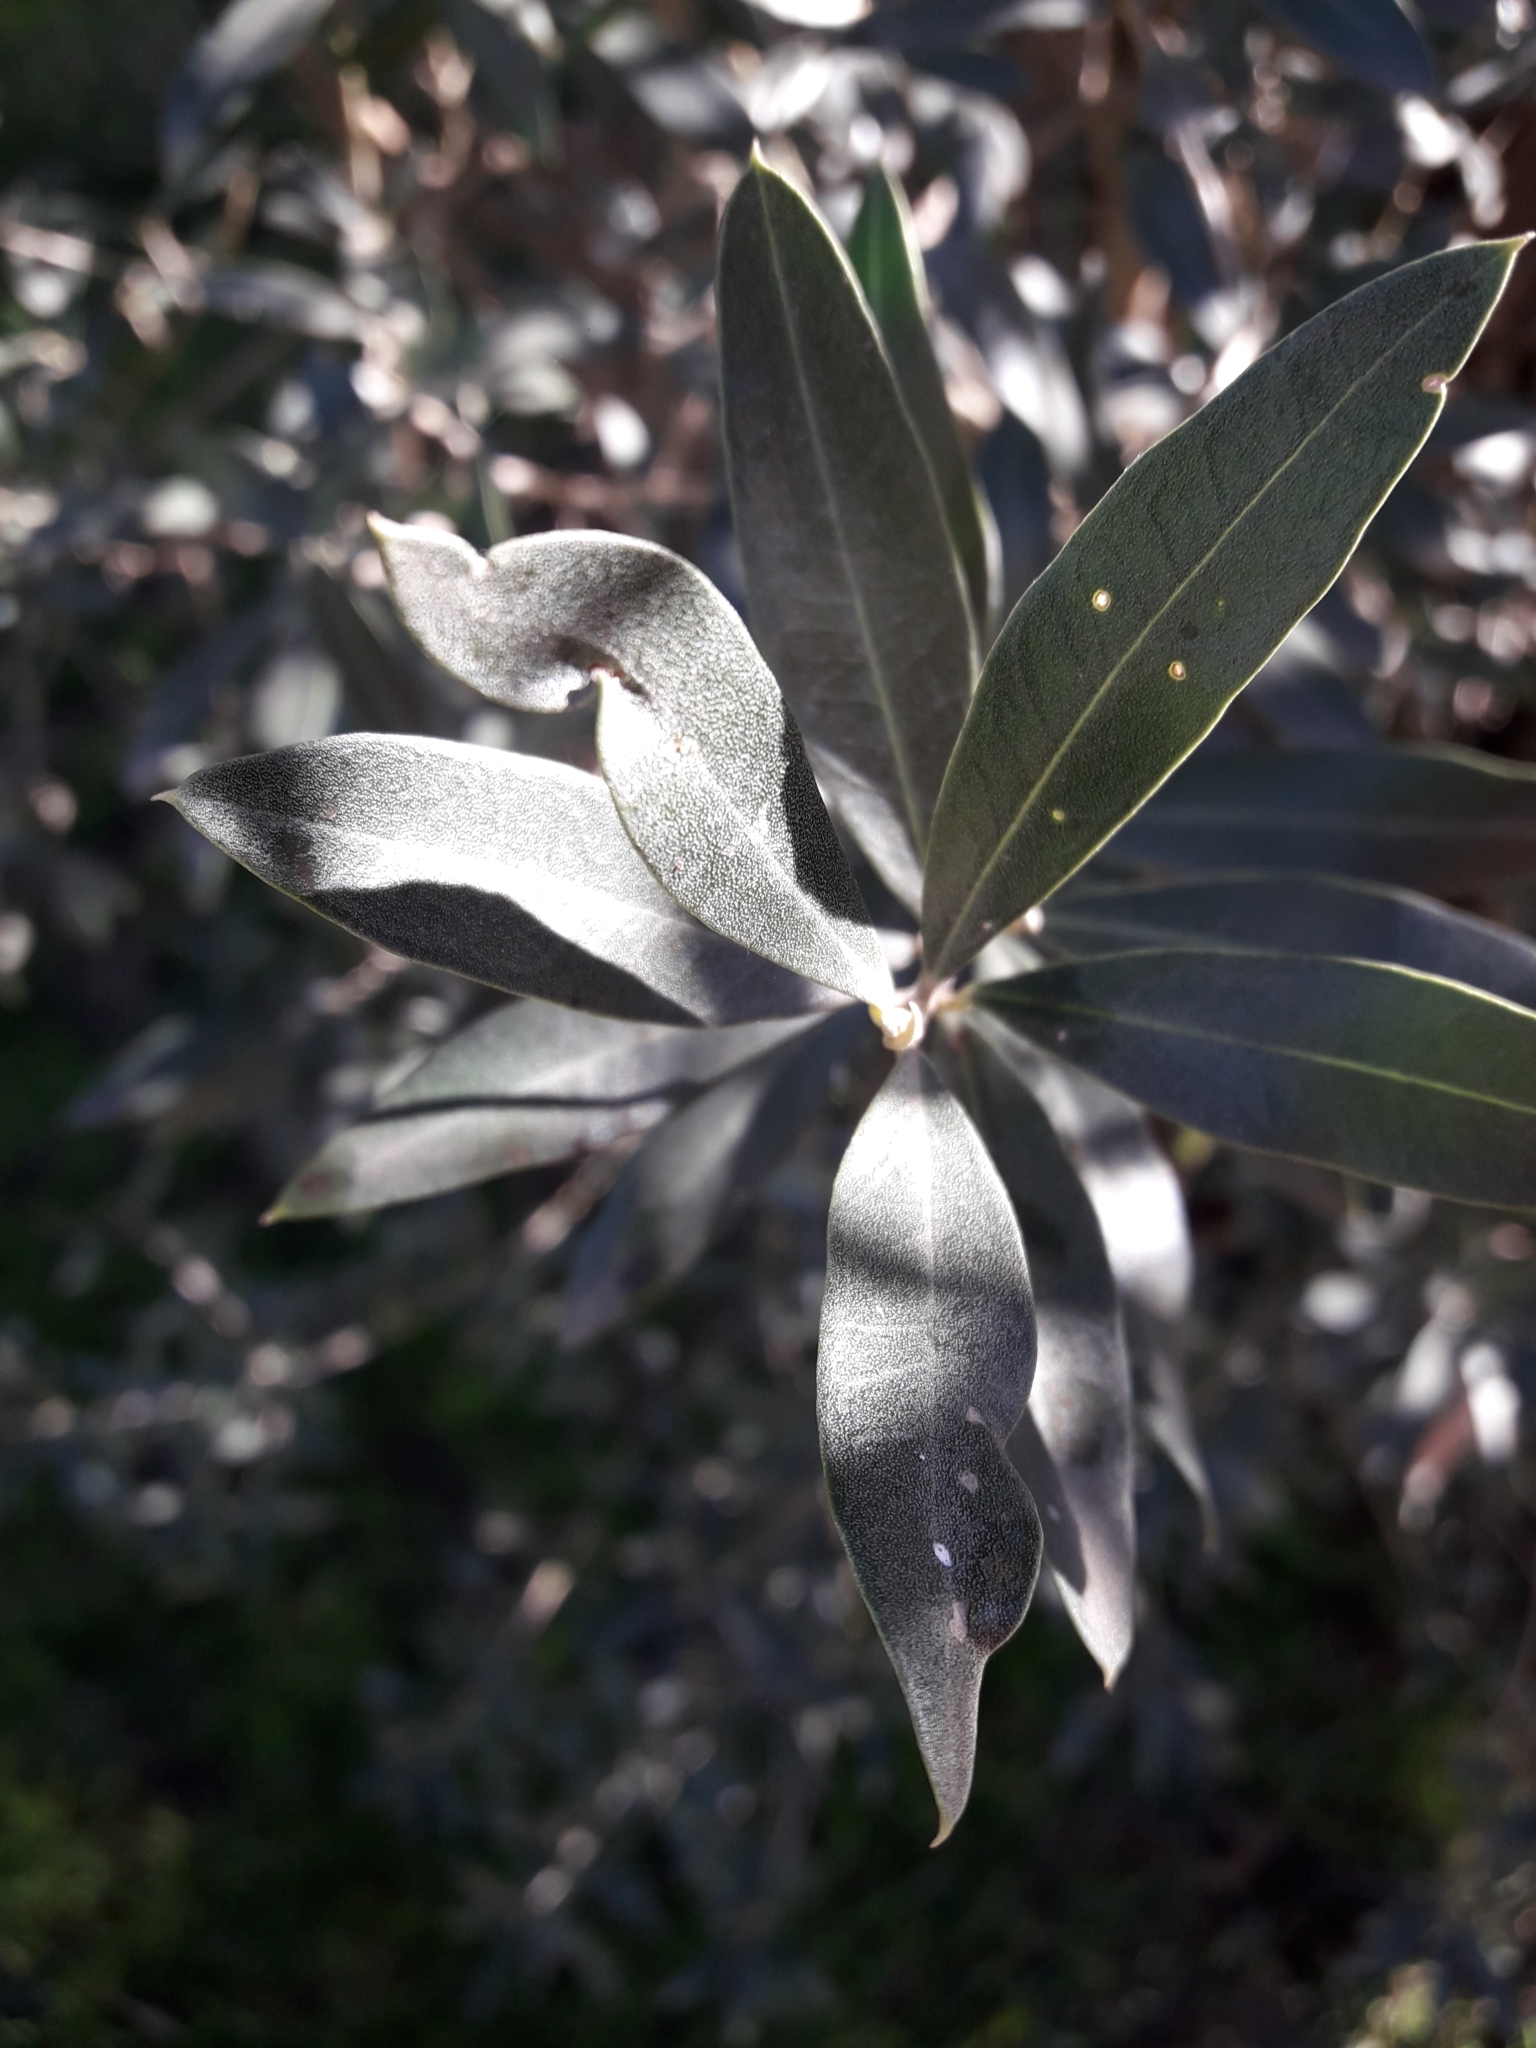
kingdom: Plantae
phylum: Tracheophyta
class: Magnoliopsida
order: Lamiales
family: Oleaceae
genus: Olea
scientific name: Olea europaea
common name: Olive
